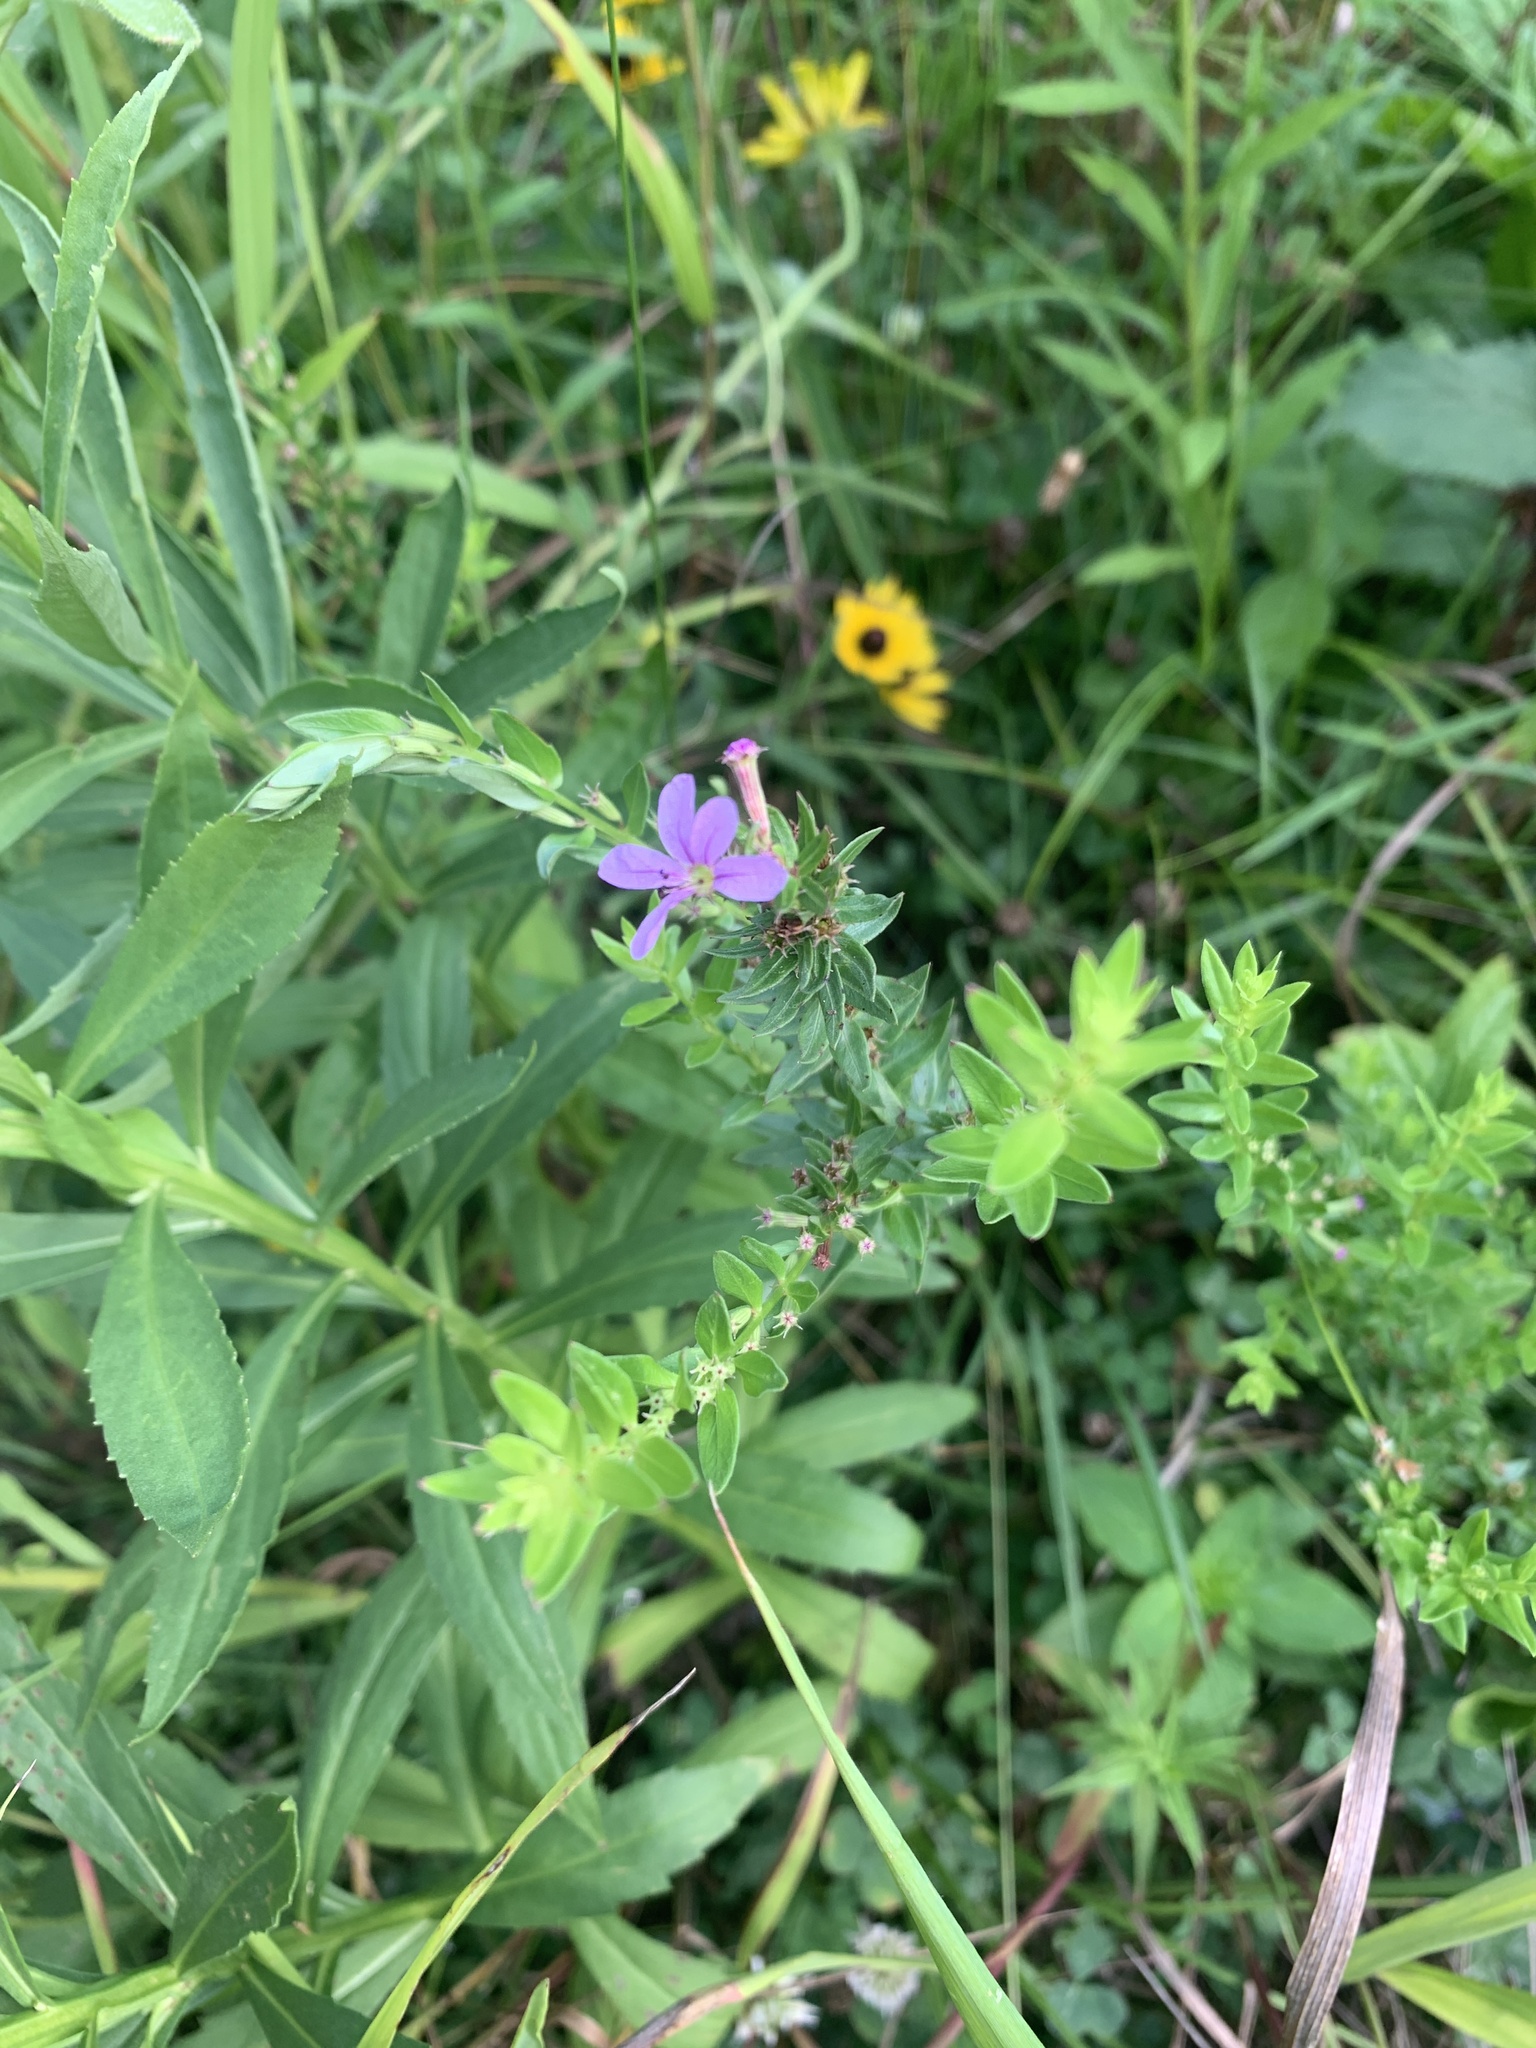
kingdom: Plantae
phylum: Tracheophyta
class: Magnoliopsida
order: Myrtales
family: Lythraceae
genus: Lythrum
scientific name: Lythrum alatum
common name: Winged loosestrife
